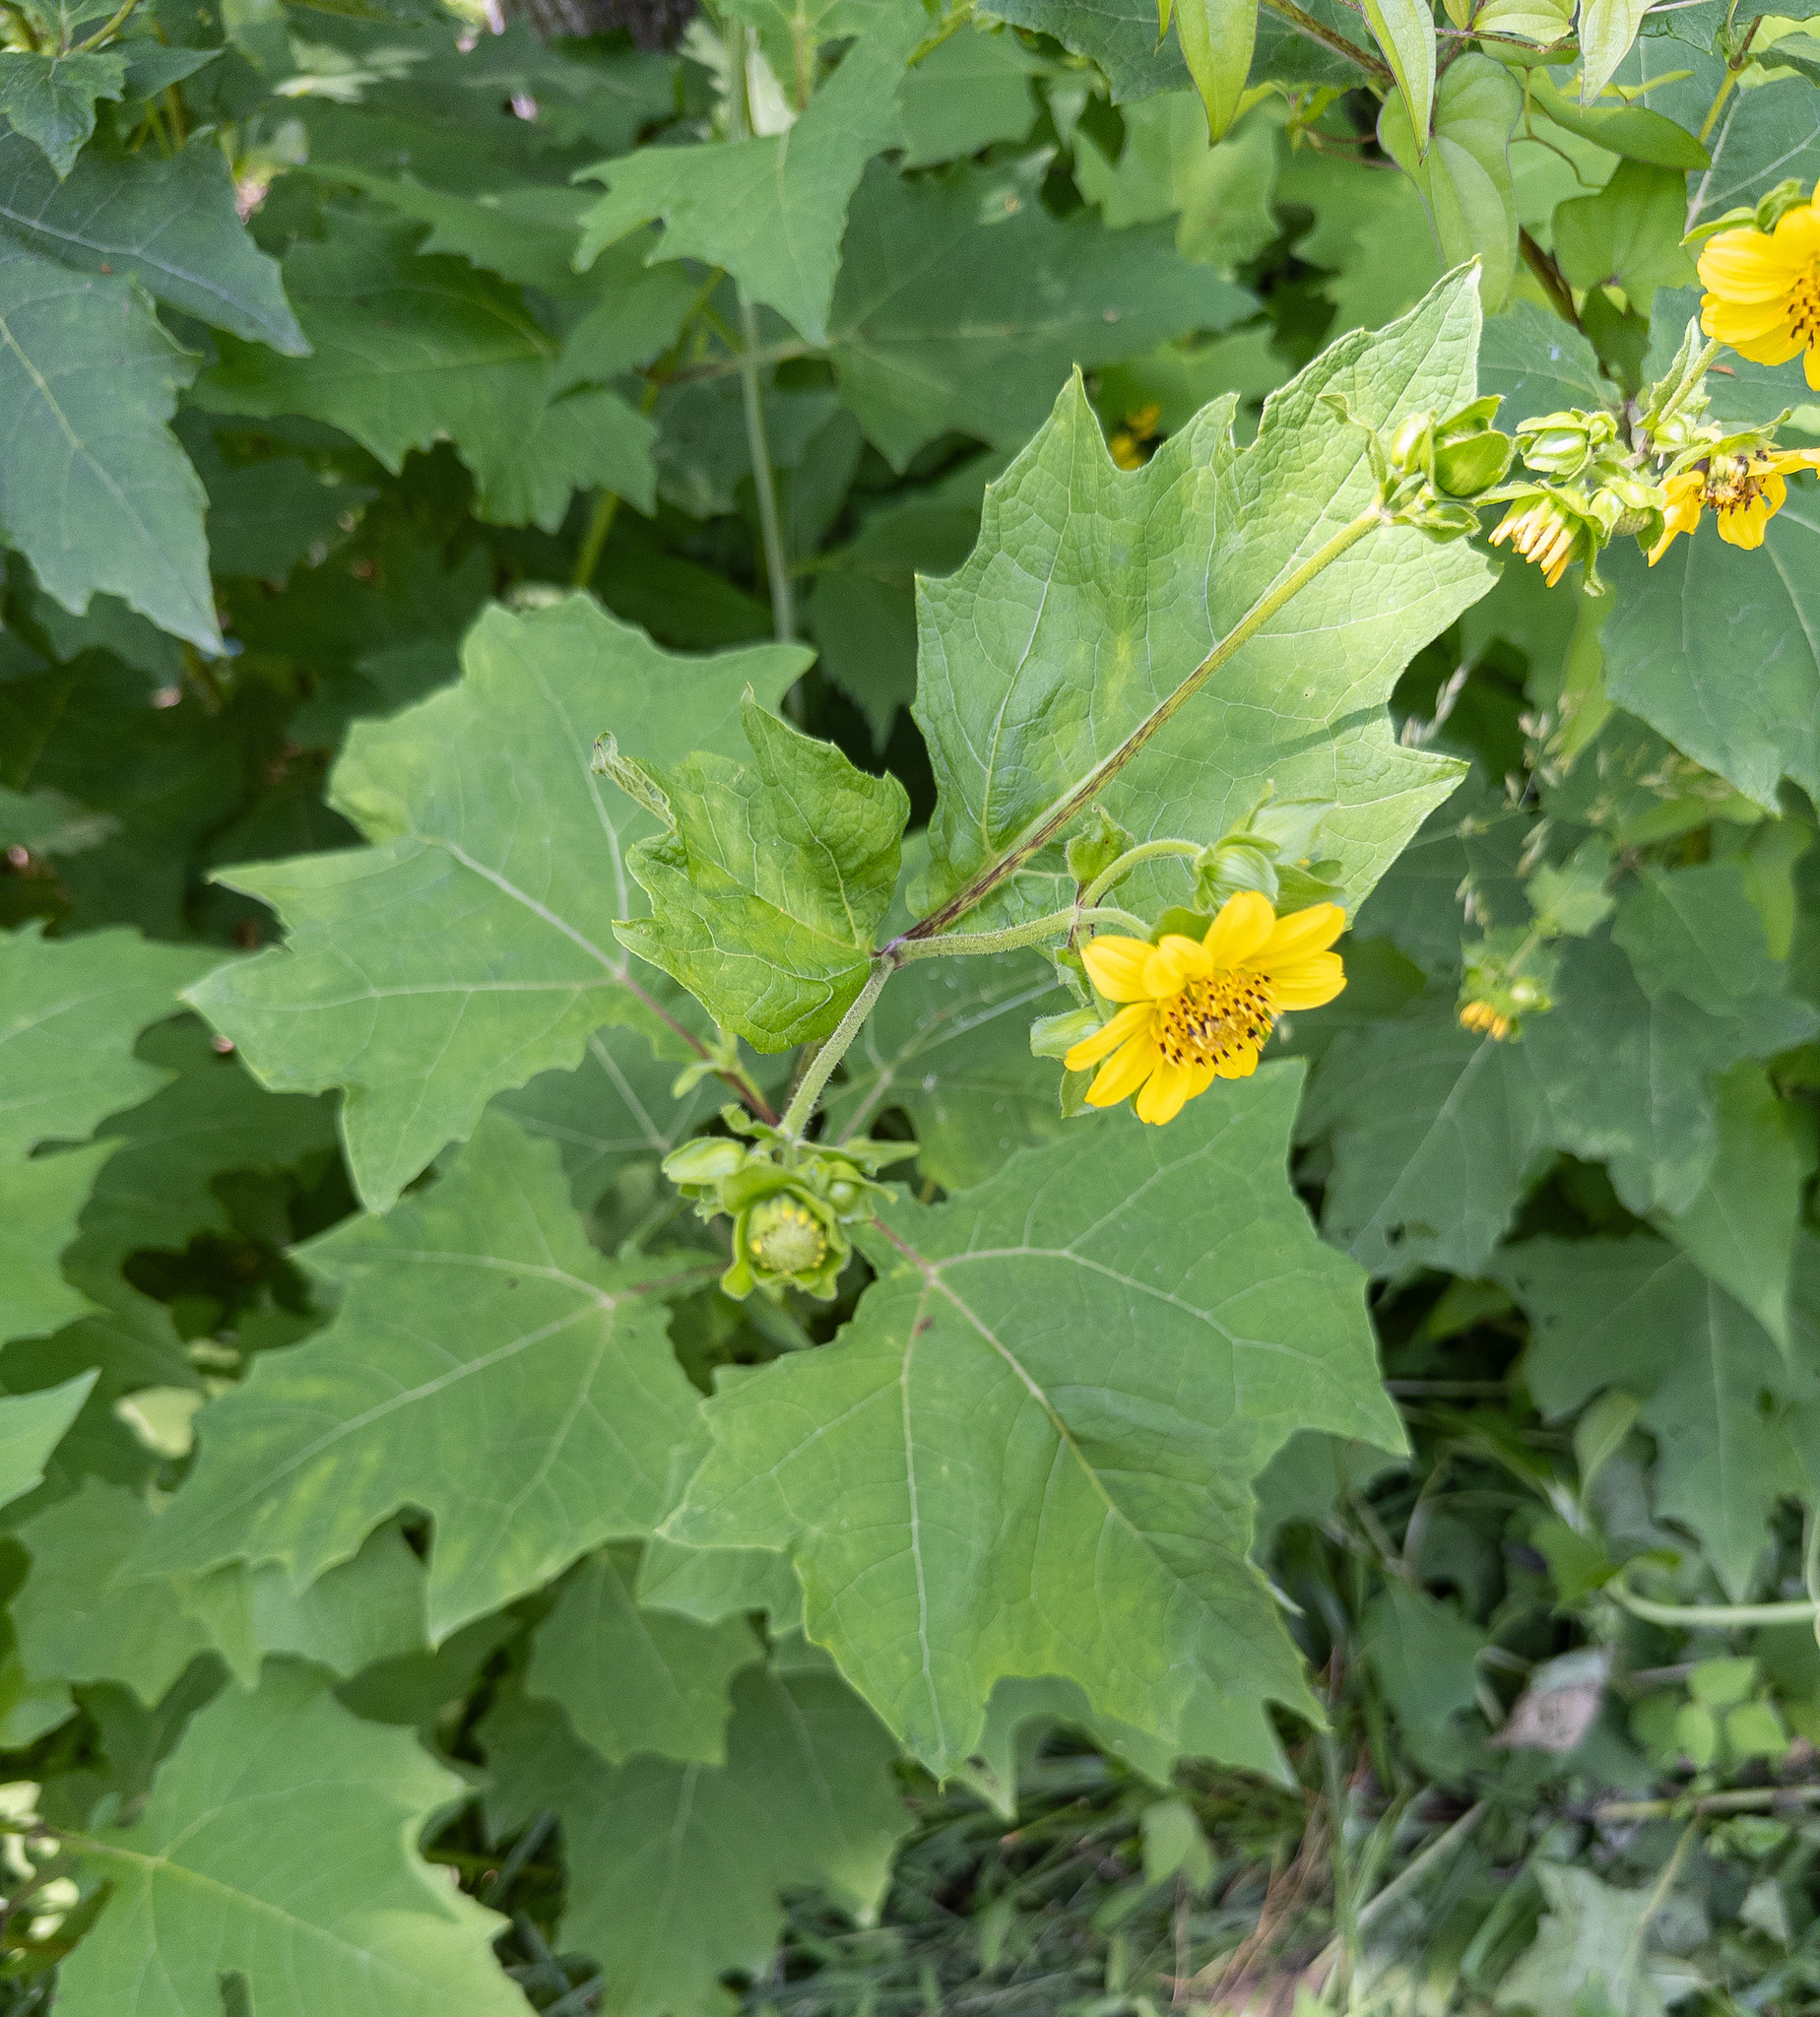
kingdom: Plantae
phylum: Tracheophyta
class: Magnoliopsida
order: Asterales
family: Asteraceae
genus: Smallanthus
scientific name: Smallanthus uvedalia
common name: Bear's-foot
